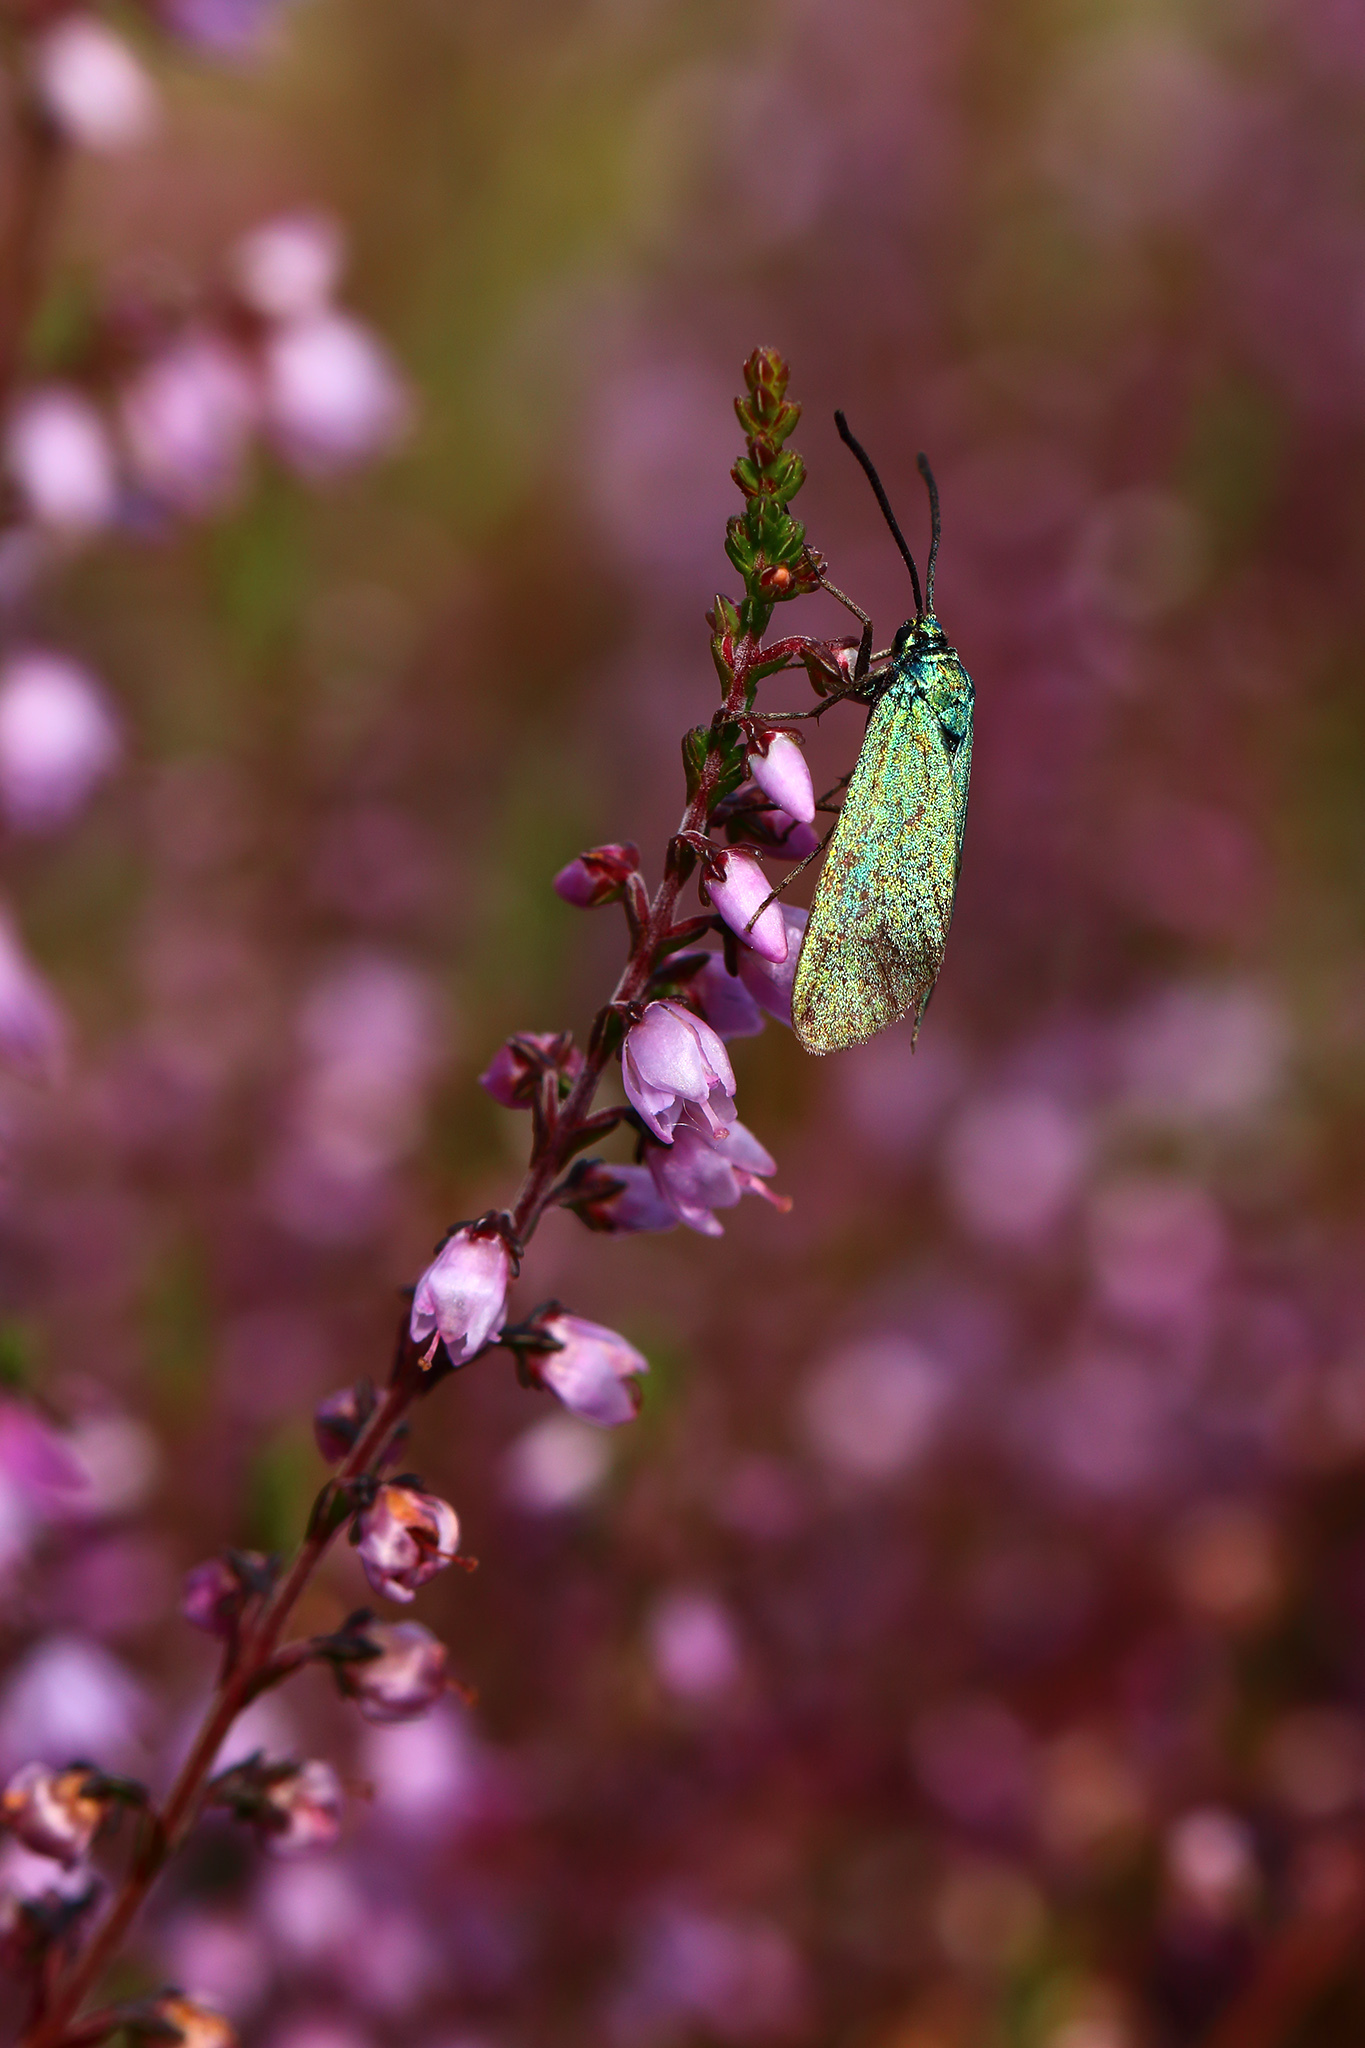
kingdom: Animalia
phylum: Arthropoda
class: Insecta
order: Lepidoptera
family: Zygaenidae
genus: Adscita
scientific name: Adscita statices
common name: Forester
